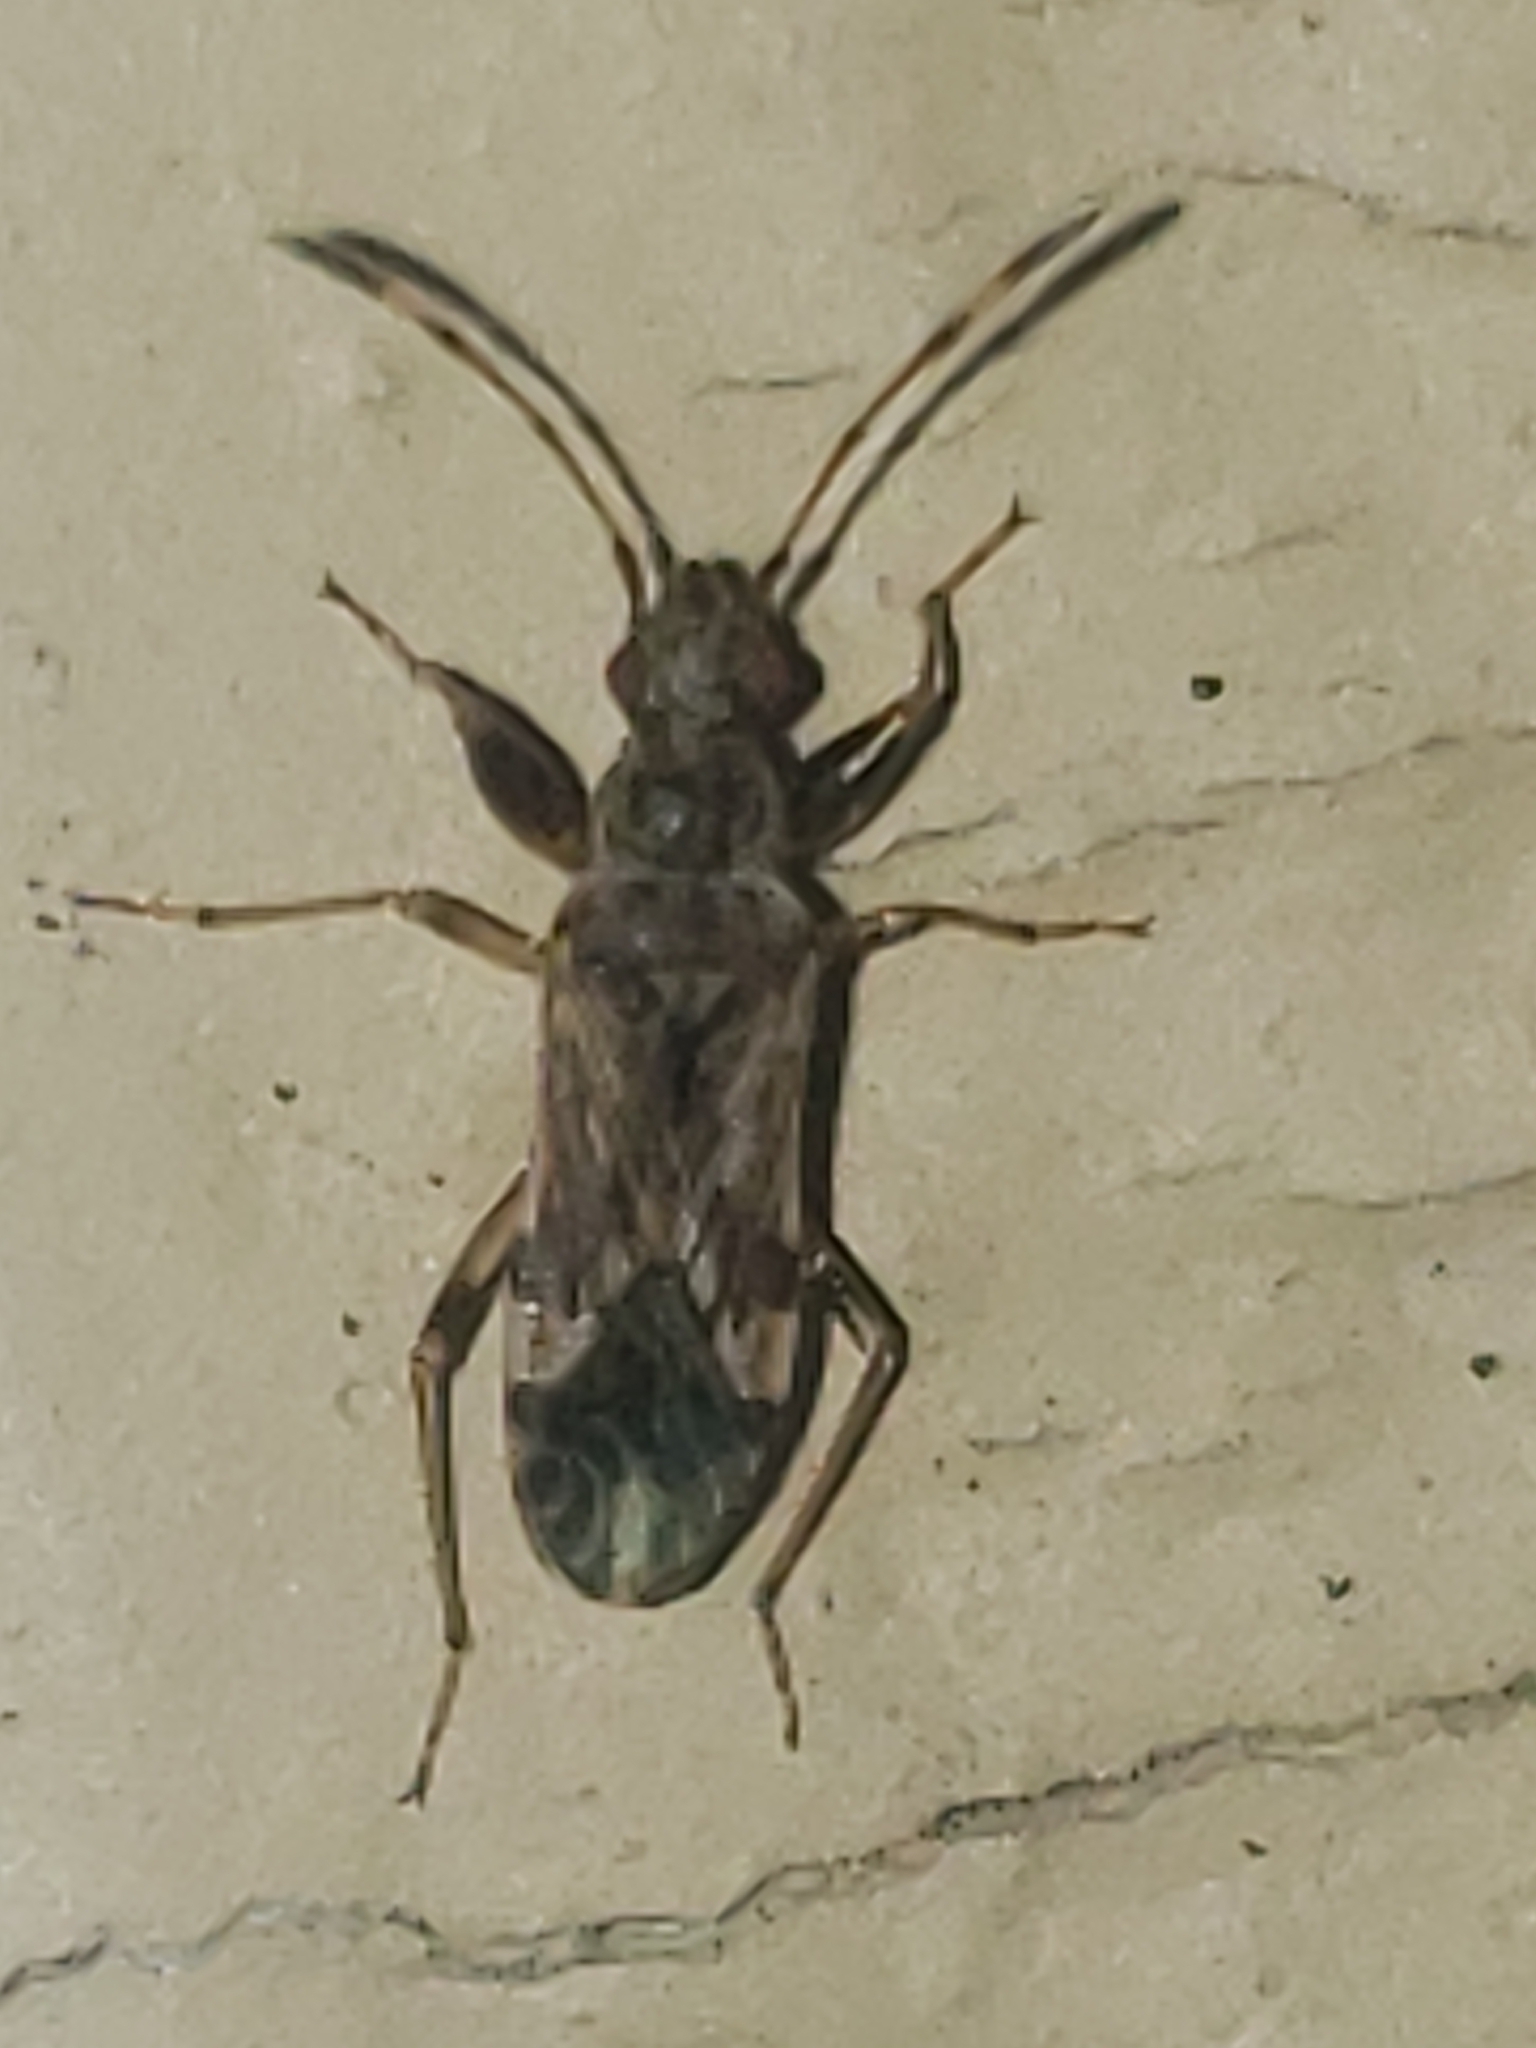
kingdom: Animalia
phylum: Arthropoda
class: Insecta
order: Hemiptera
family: Rhyparochromidae
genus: Neopamera
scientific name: Neopamera albocincta
